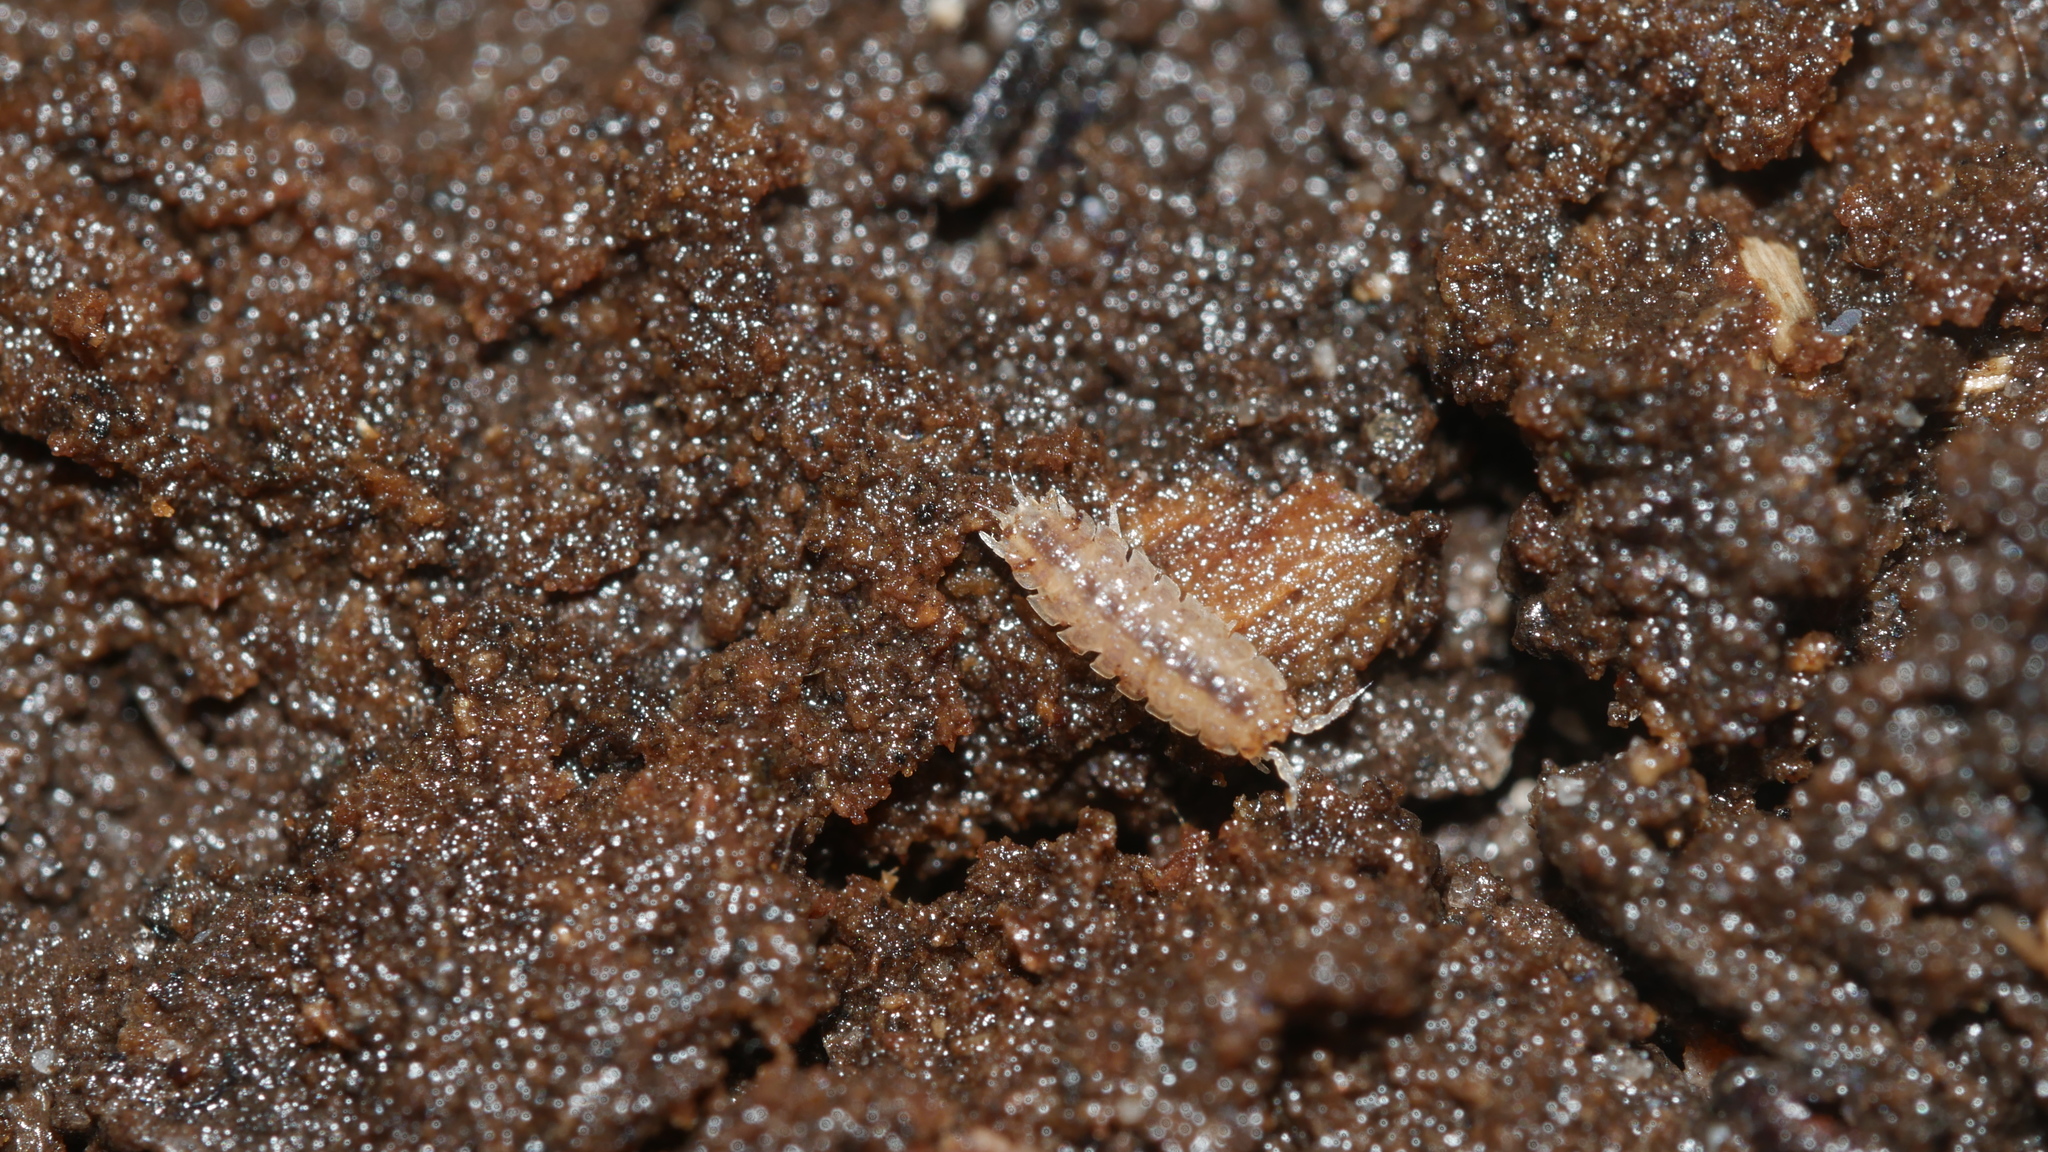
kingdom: Animalia
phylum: Arthropoda
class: Malacostraca
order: Isopoda
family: Trichoniscidae
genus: Haplophthalmus
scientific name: Haplophthalmus danicus
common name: Pillbug
